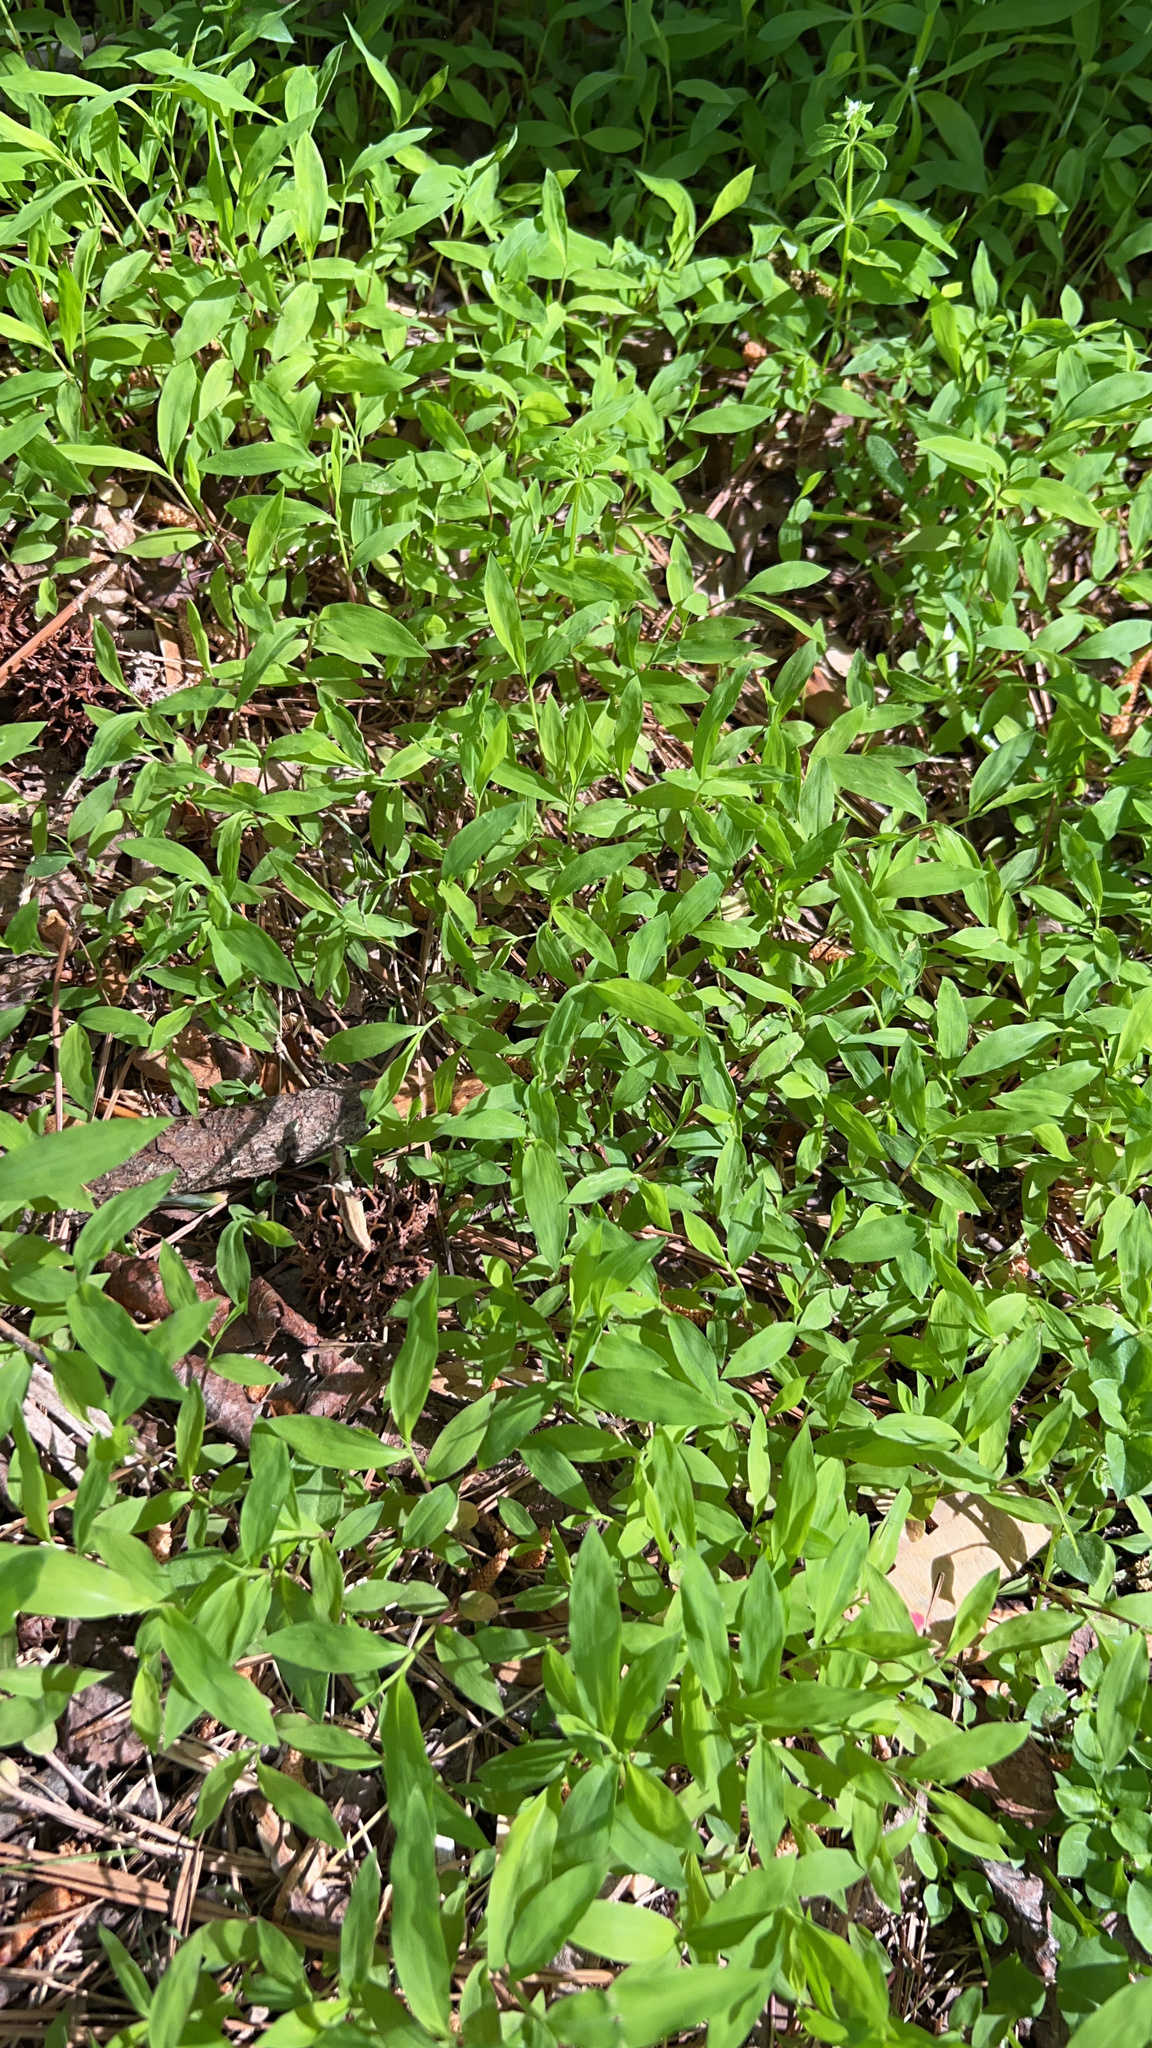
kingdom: Plantae
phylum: Tracheophyta
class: Liliopsida
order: Poales
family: Poaceae
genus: Microstegium
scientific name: Microstegium vimineum
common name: Japanese stiltgrass
